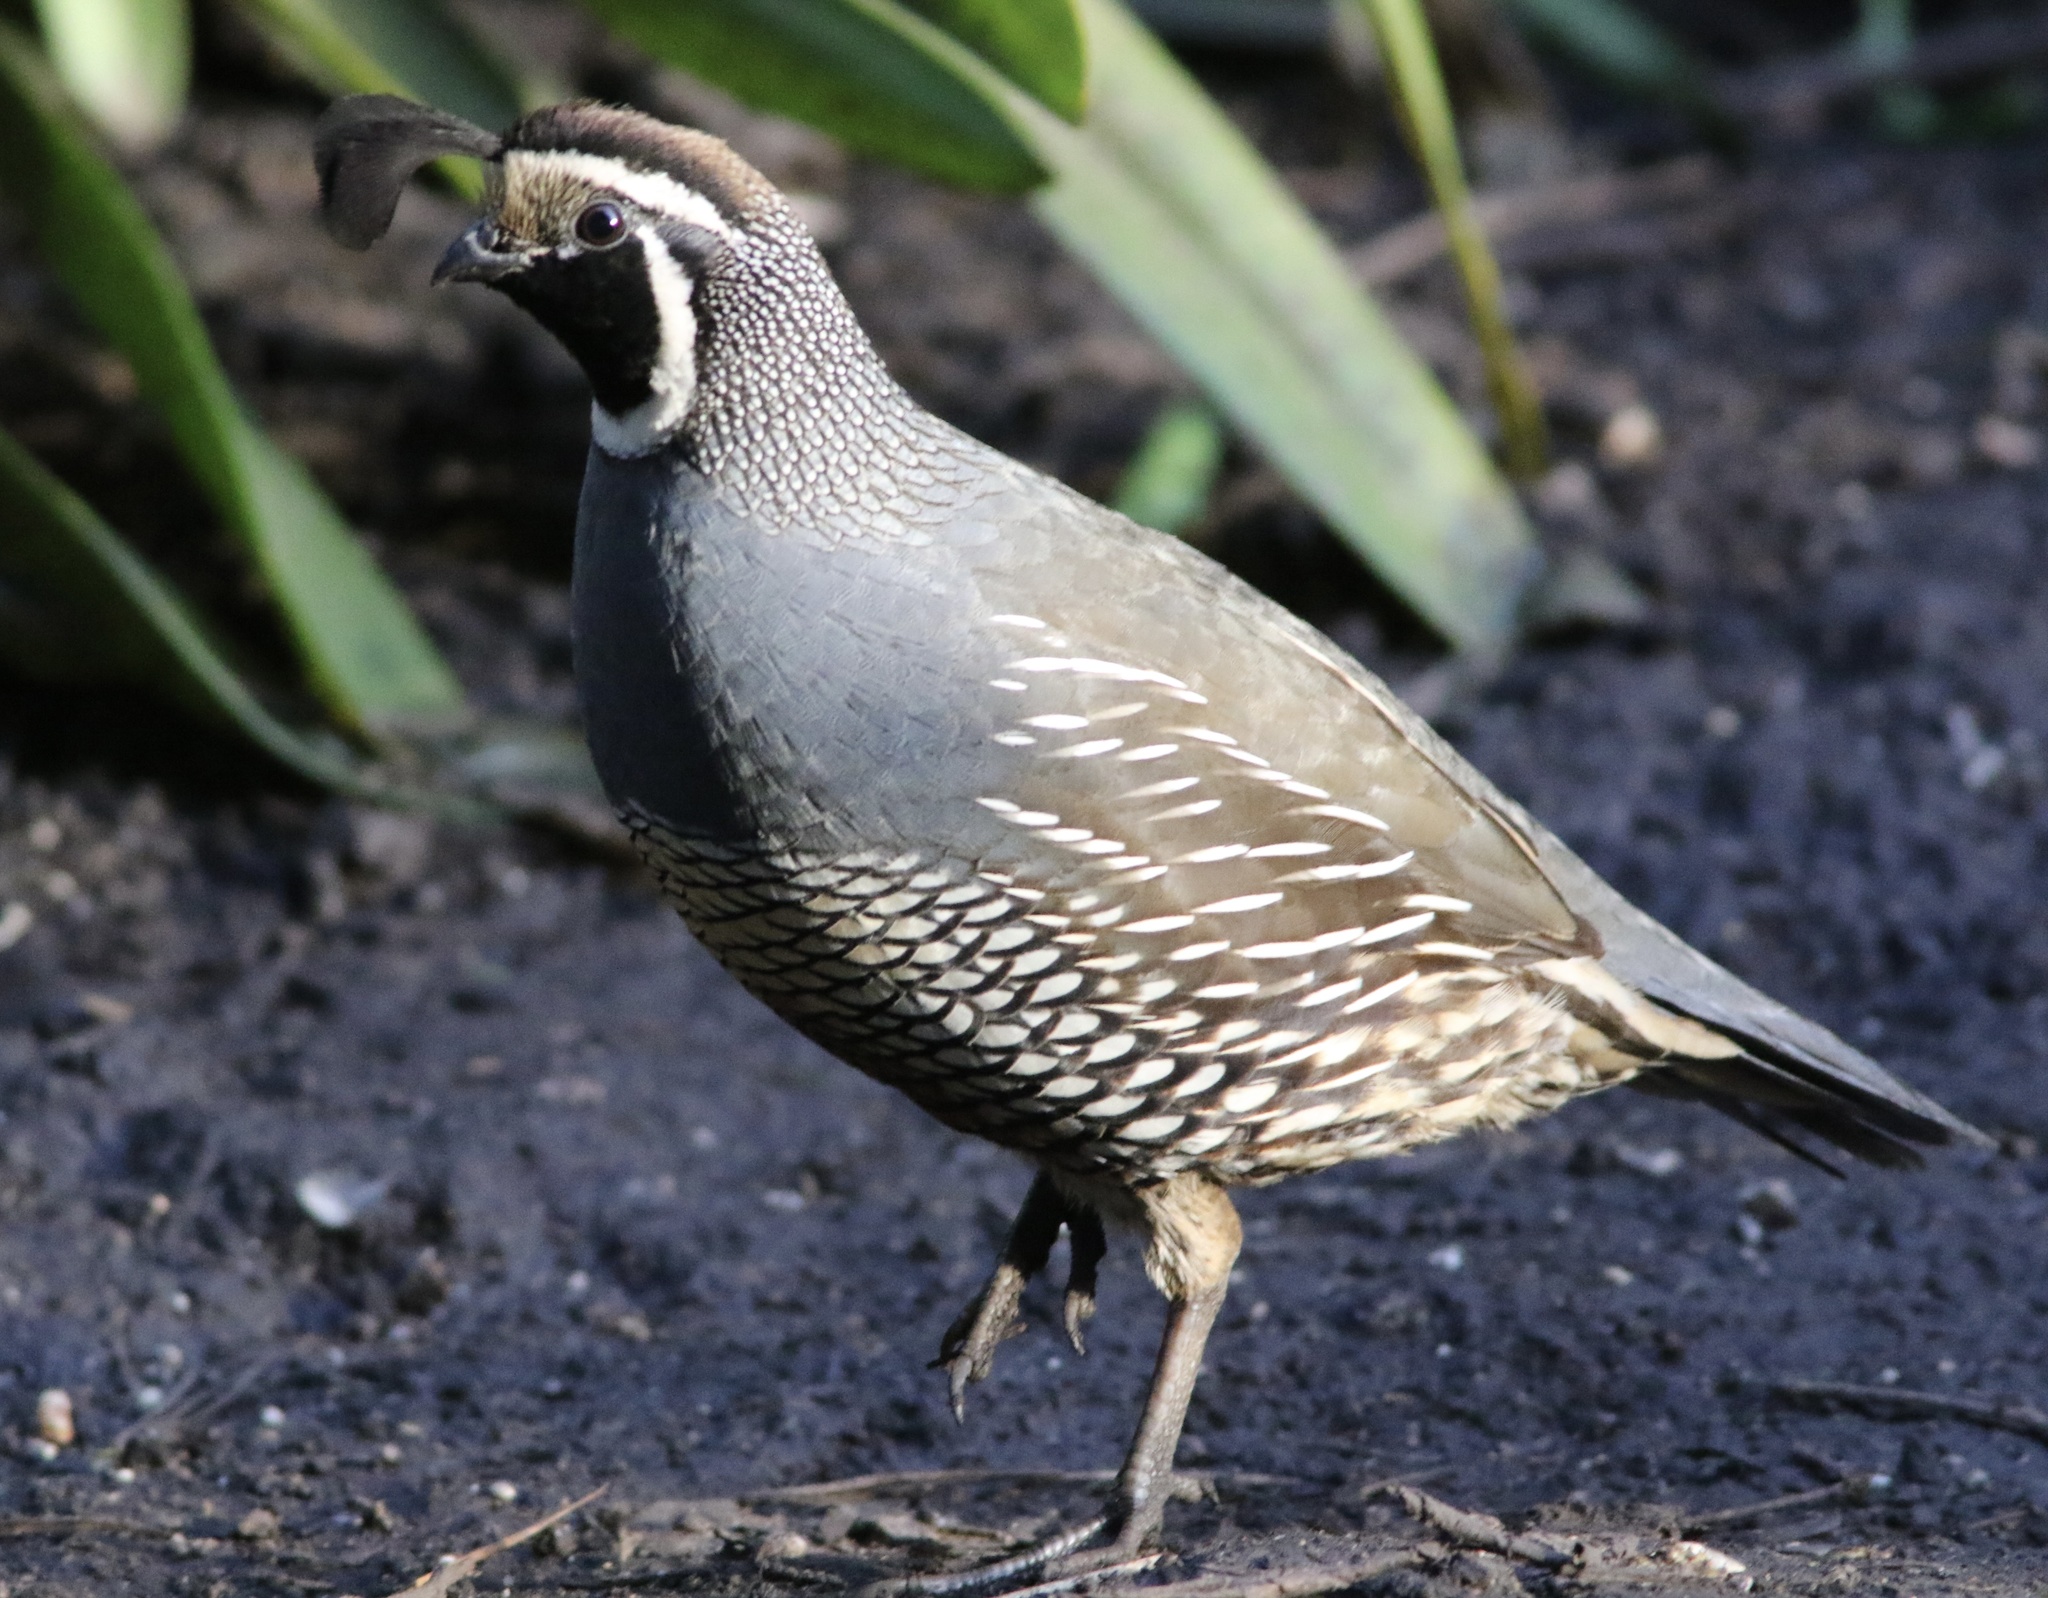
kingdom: Animalia
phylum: Chordata
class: Aves
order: Galliformes
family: Odontophoridae
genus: Callipepla
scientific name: Callipepla californica
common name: California quail
